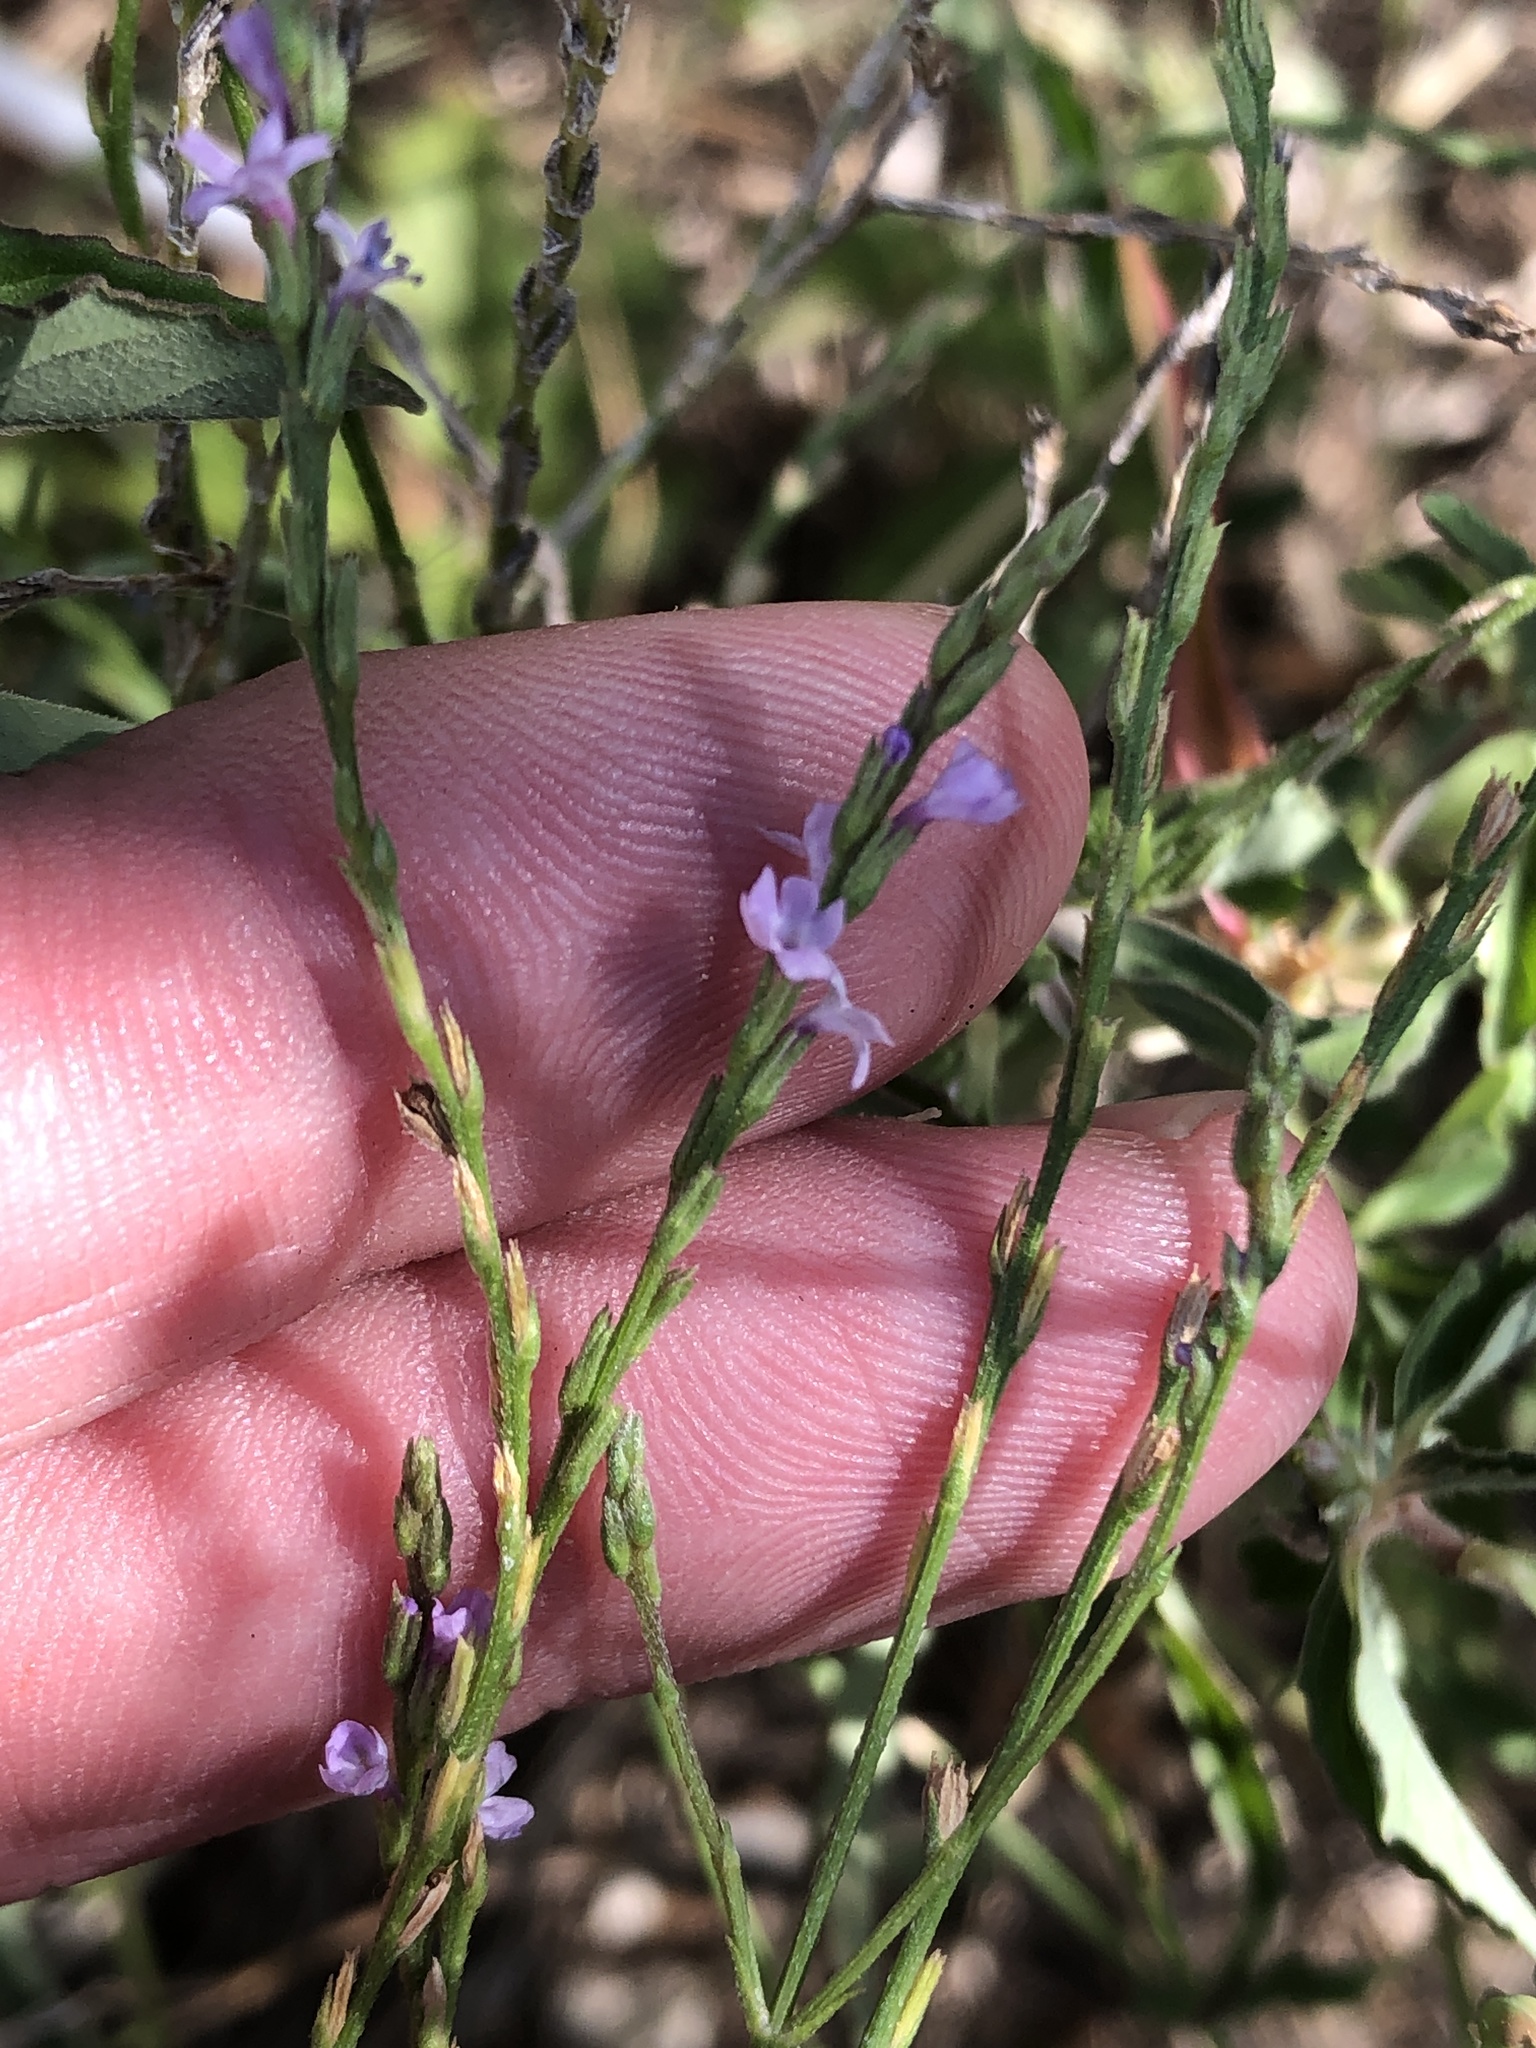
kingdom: Plantae
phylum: Tracheophyta
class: Magnoliopsida
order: Lamiales
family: Verbenaceae
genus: Verbena
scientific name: Verbena halei
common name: Texas vervain
